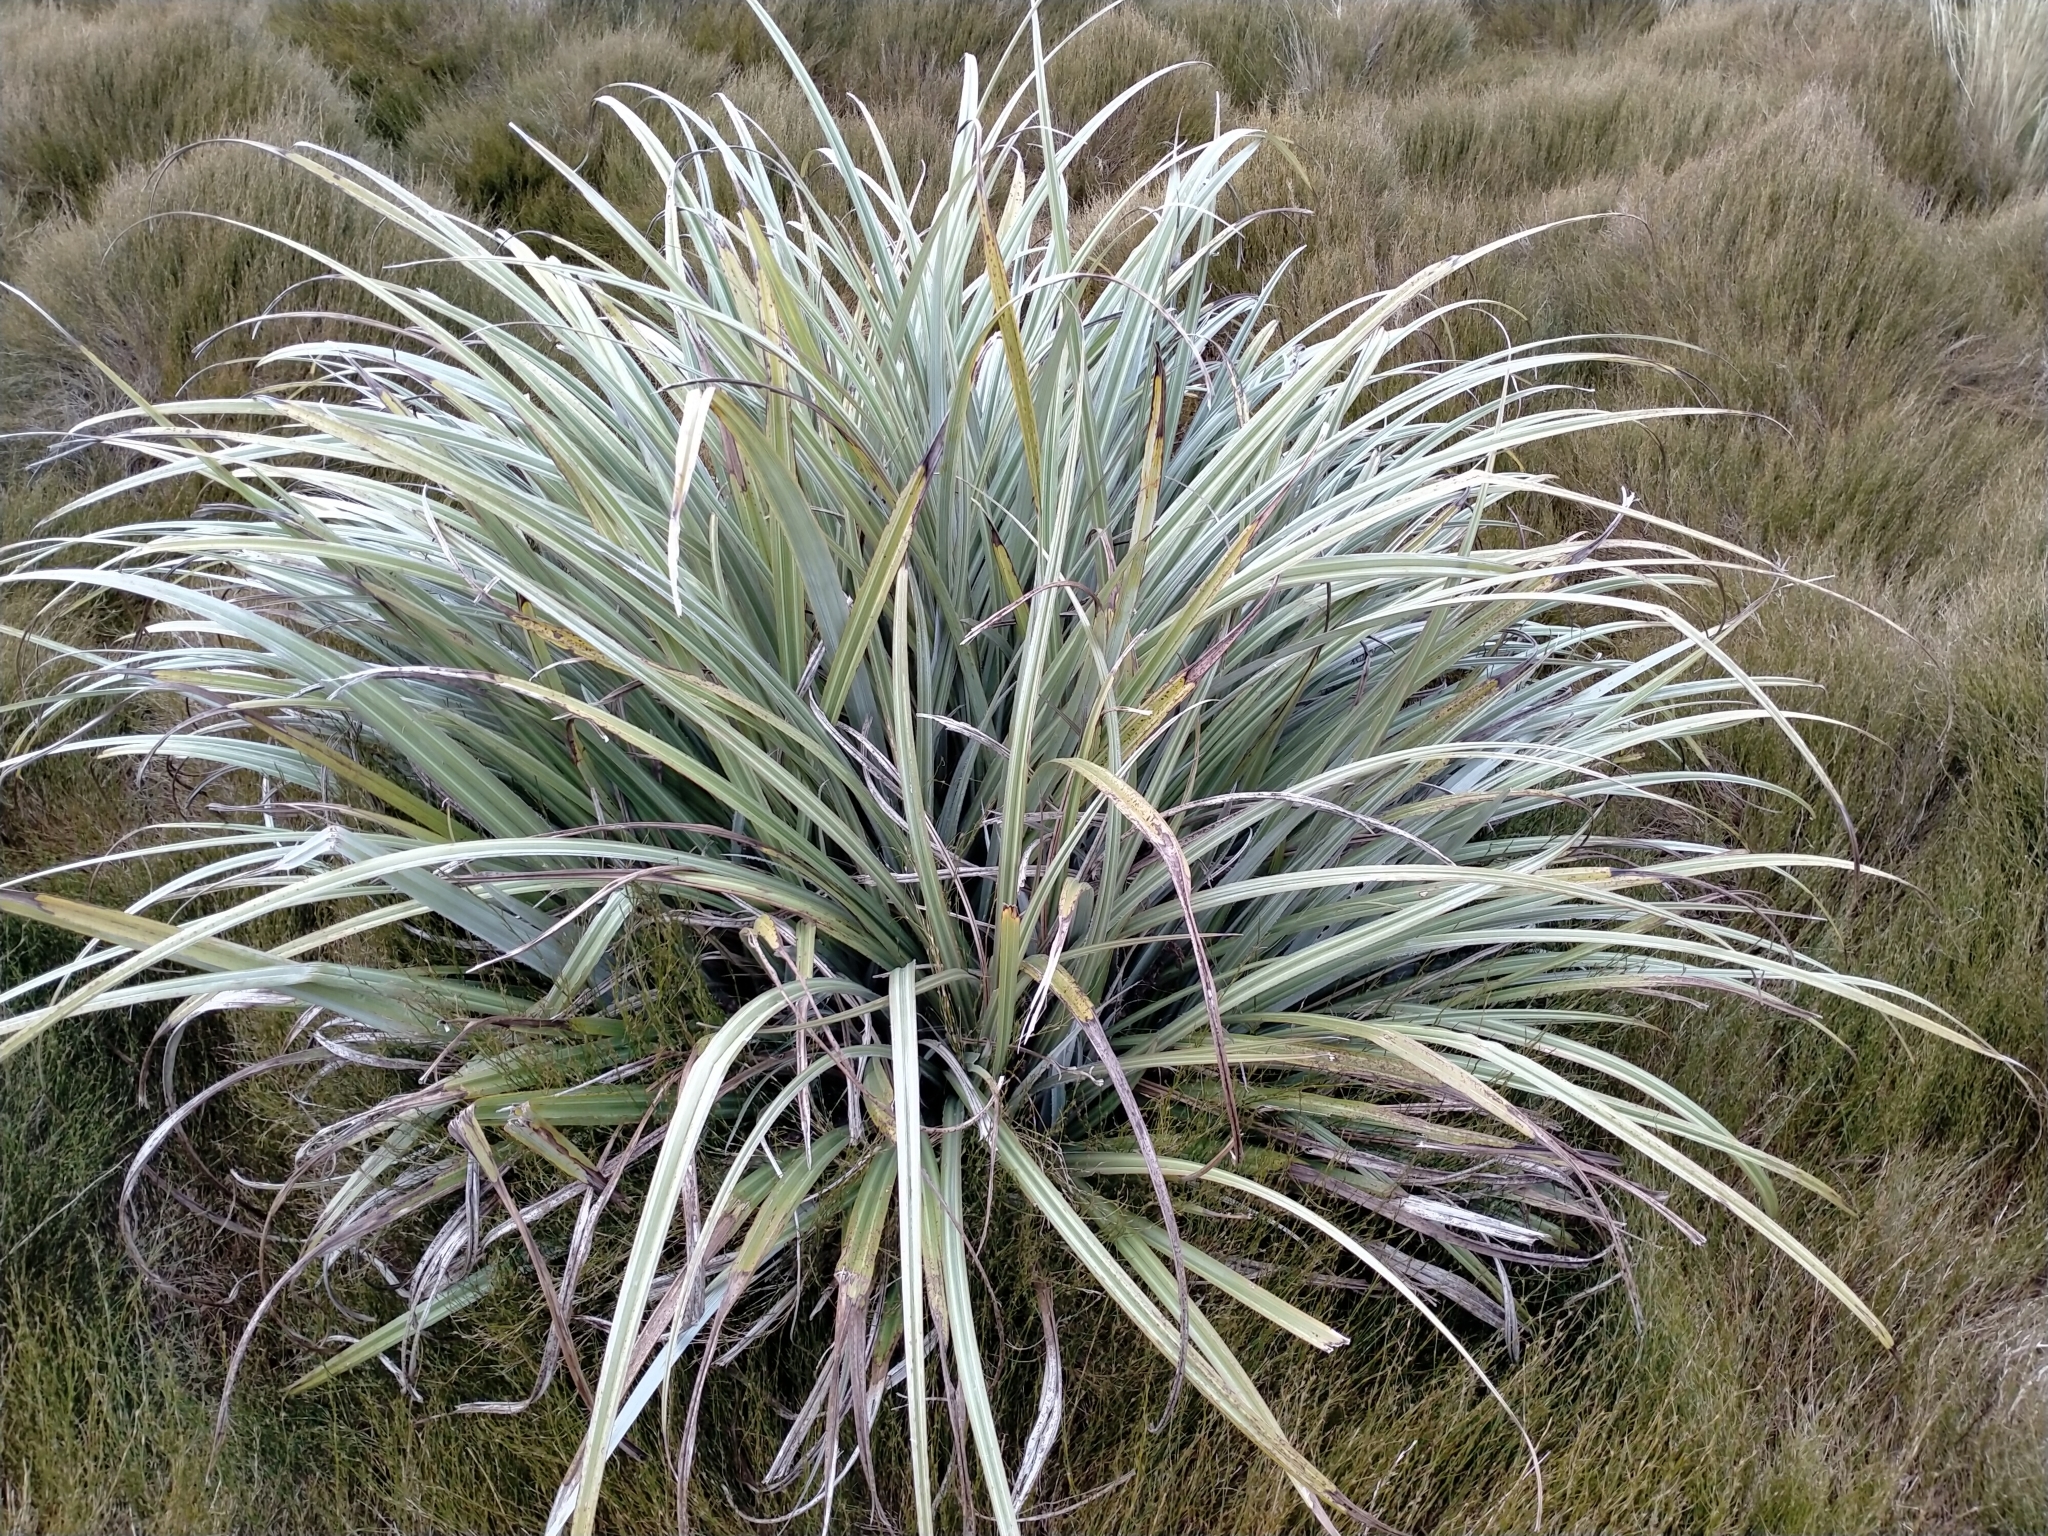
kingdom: Plantae
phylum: Tracheophyta
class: Liliopsida
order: Asparagales
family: Asteliaceae
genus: Astelia
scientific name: Astelia nervosa
